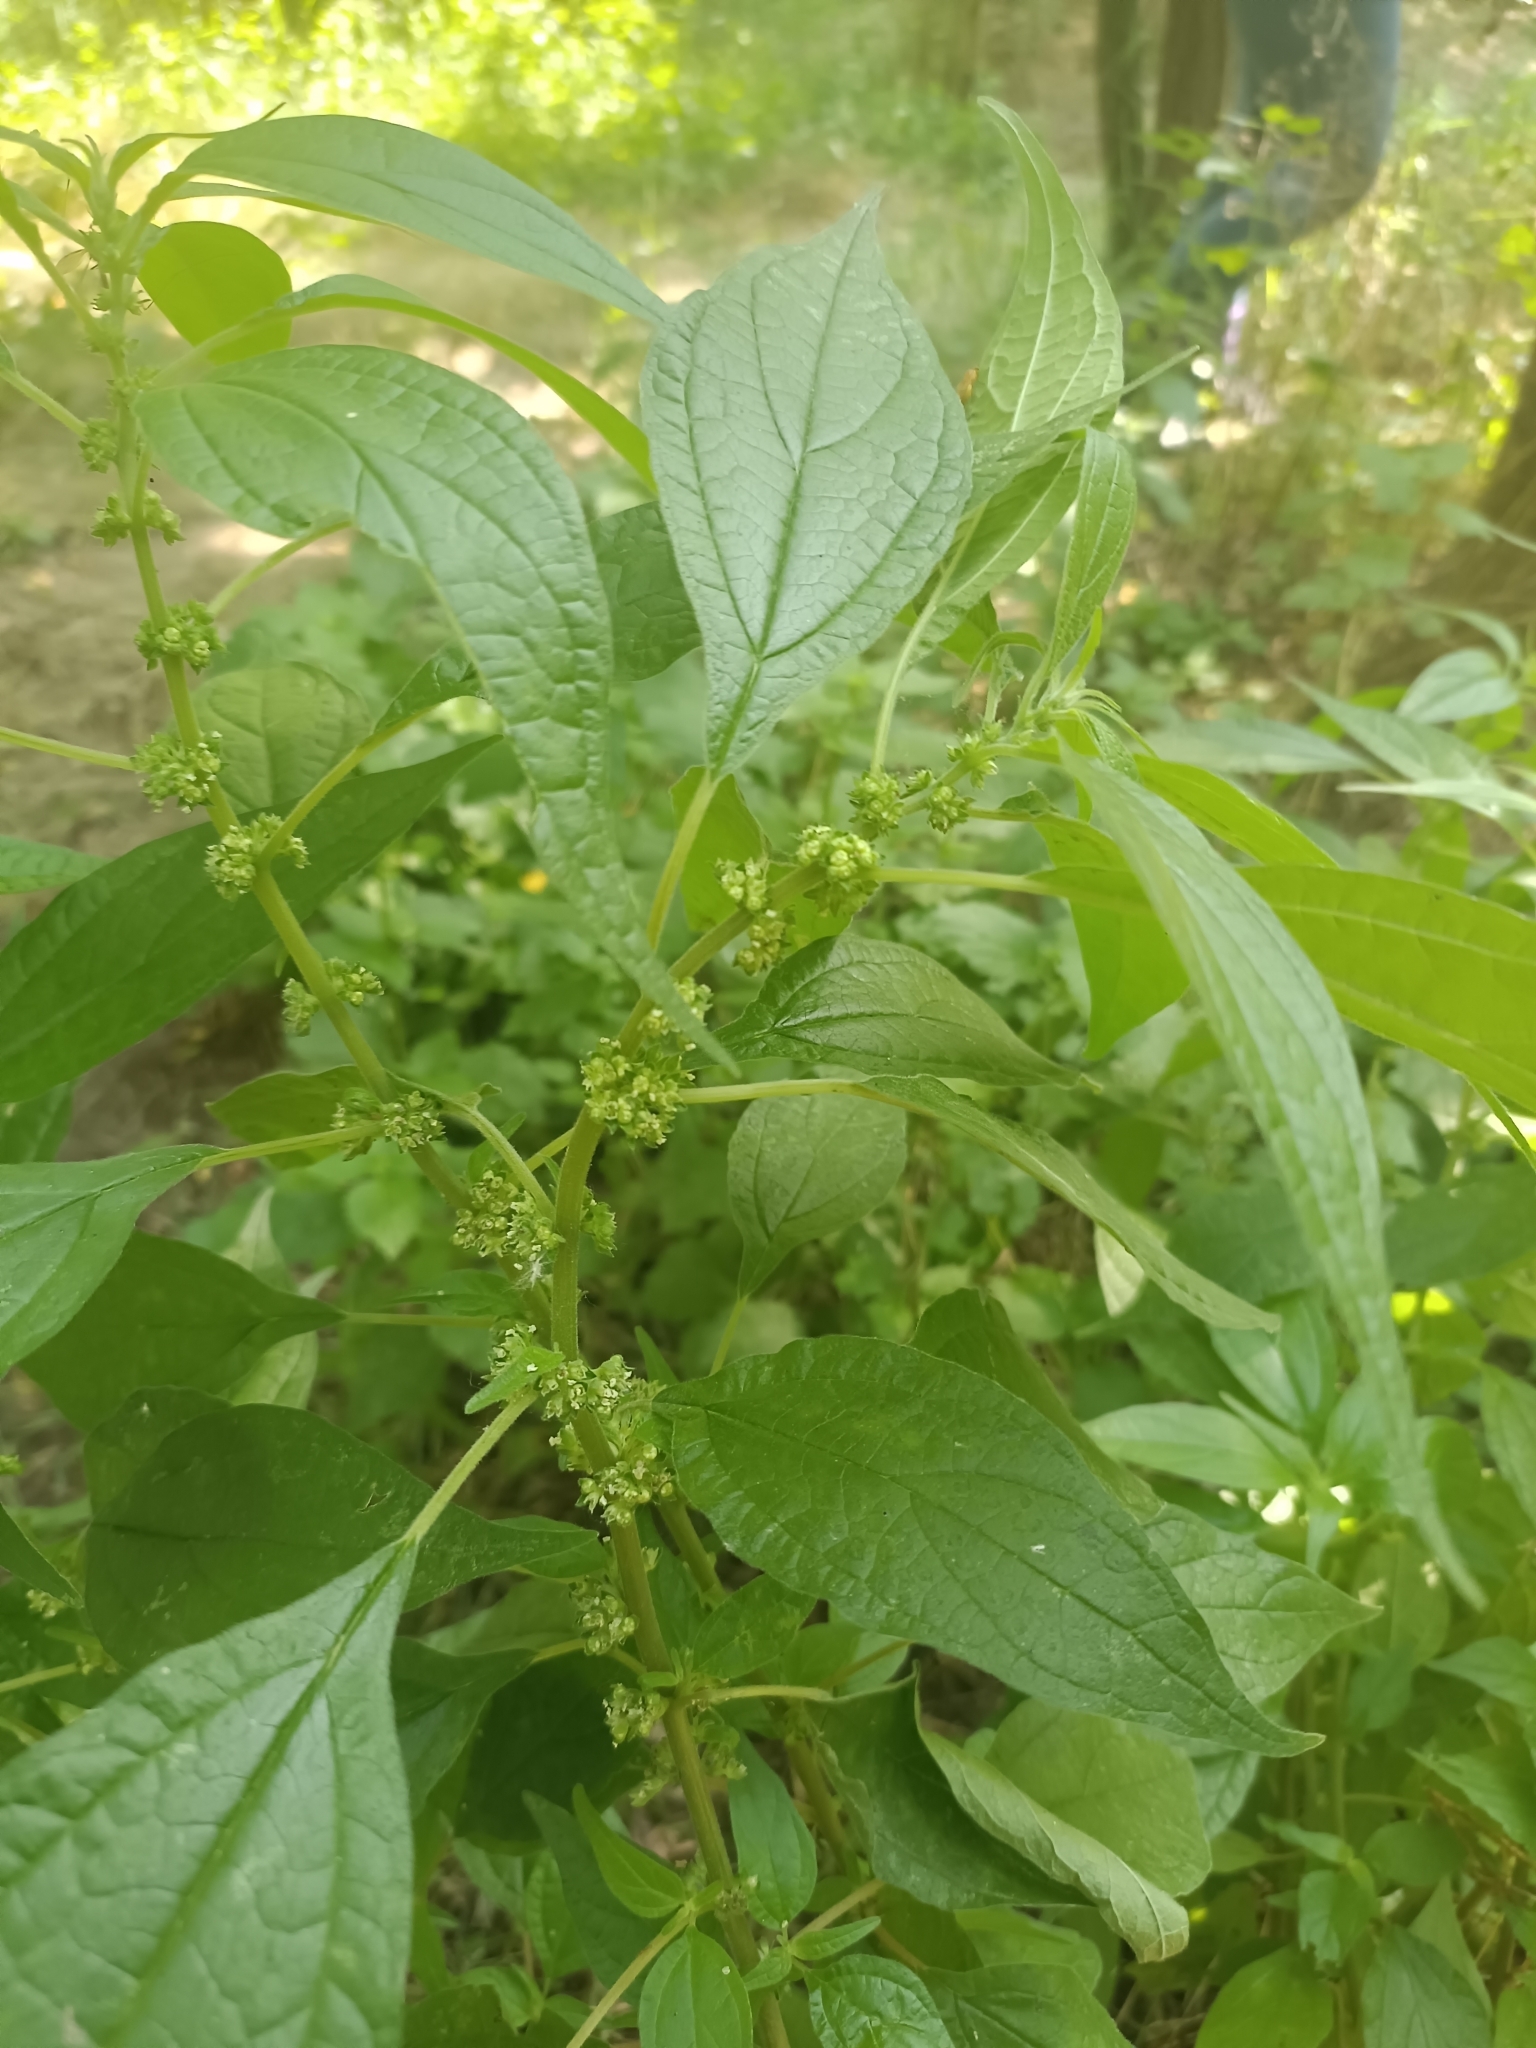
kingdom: Plantae
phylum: Tracheophyta
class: Magnoliopsida
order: Rosales
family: Urticaceae
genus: Parietaria
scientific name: Parietaria officinalis
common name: Eastern pellitory-of-the-wall
